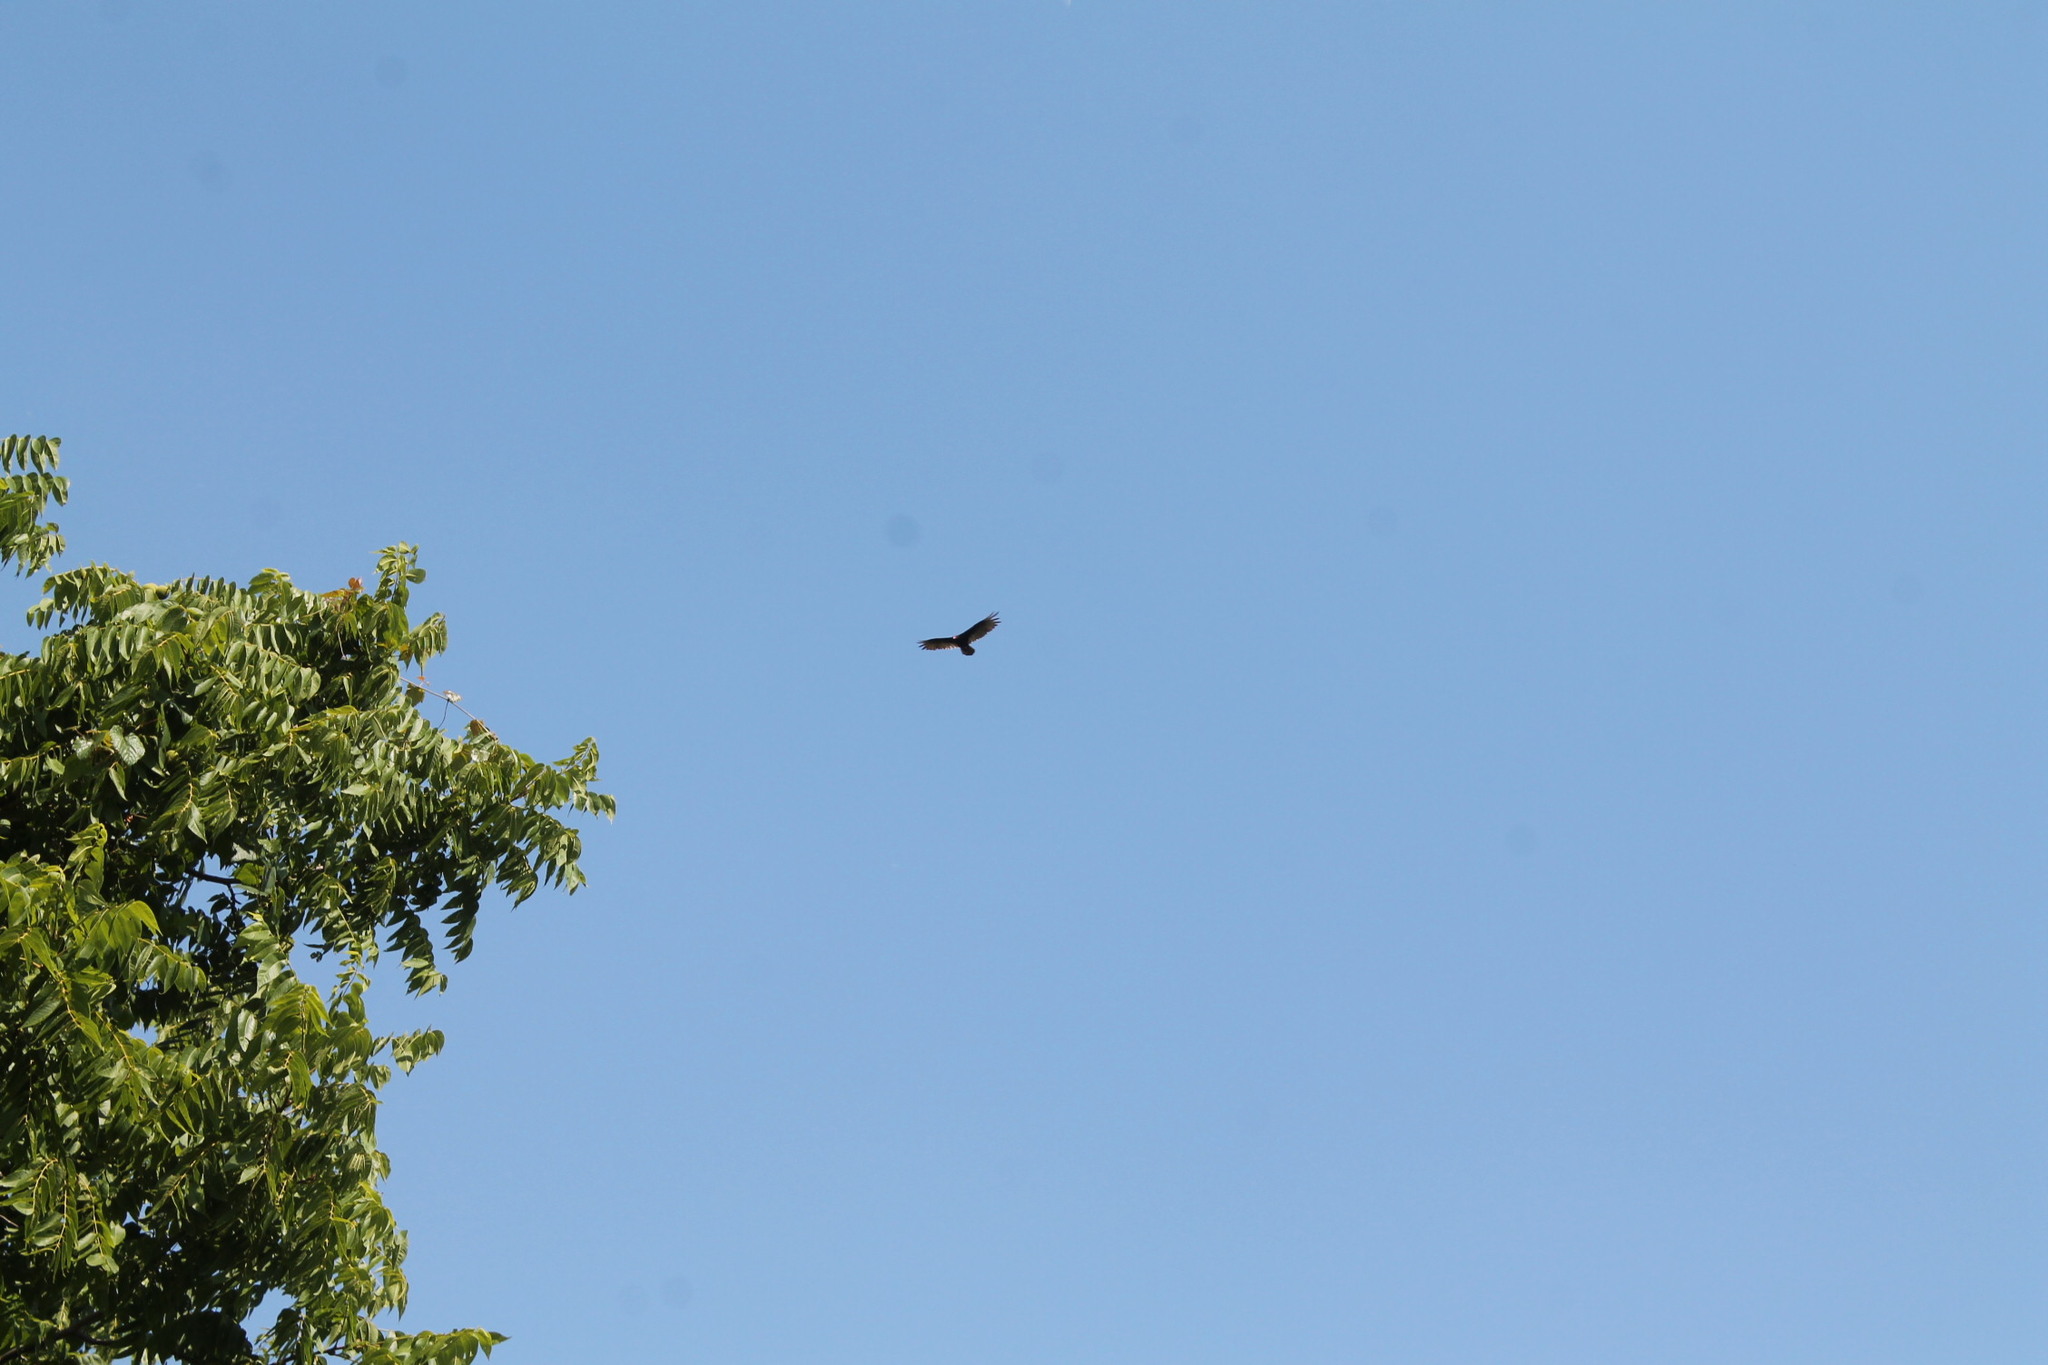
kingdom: Animalia
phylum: Chordata
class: Aves
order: Accipitriformes
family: Cathartidae
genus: Cathartes
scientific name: Cathartes aura
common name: Turkey vulture
